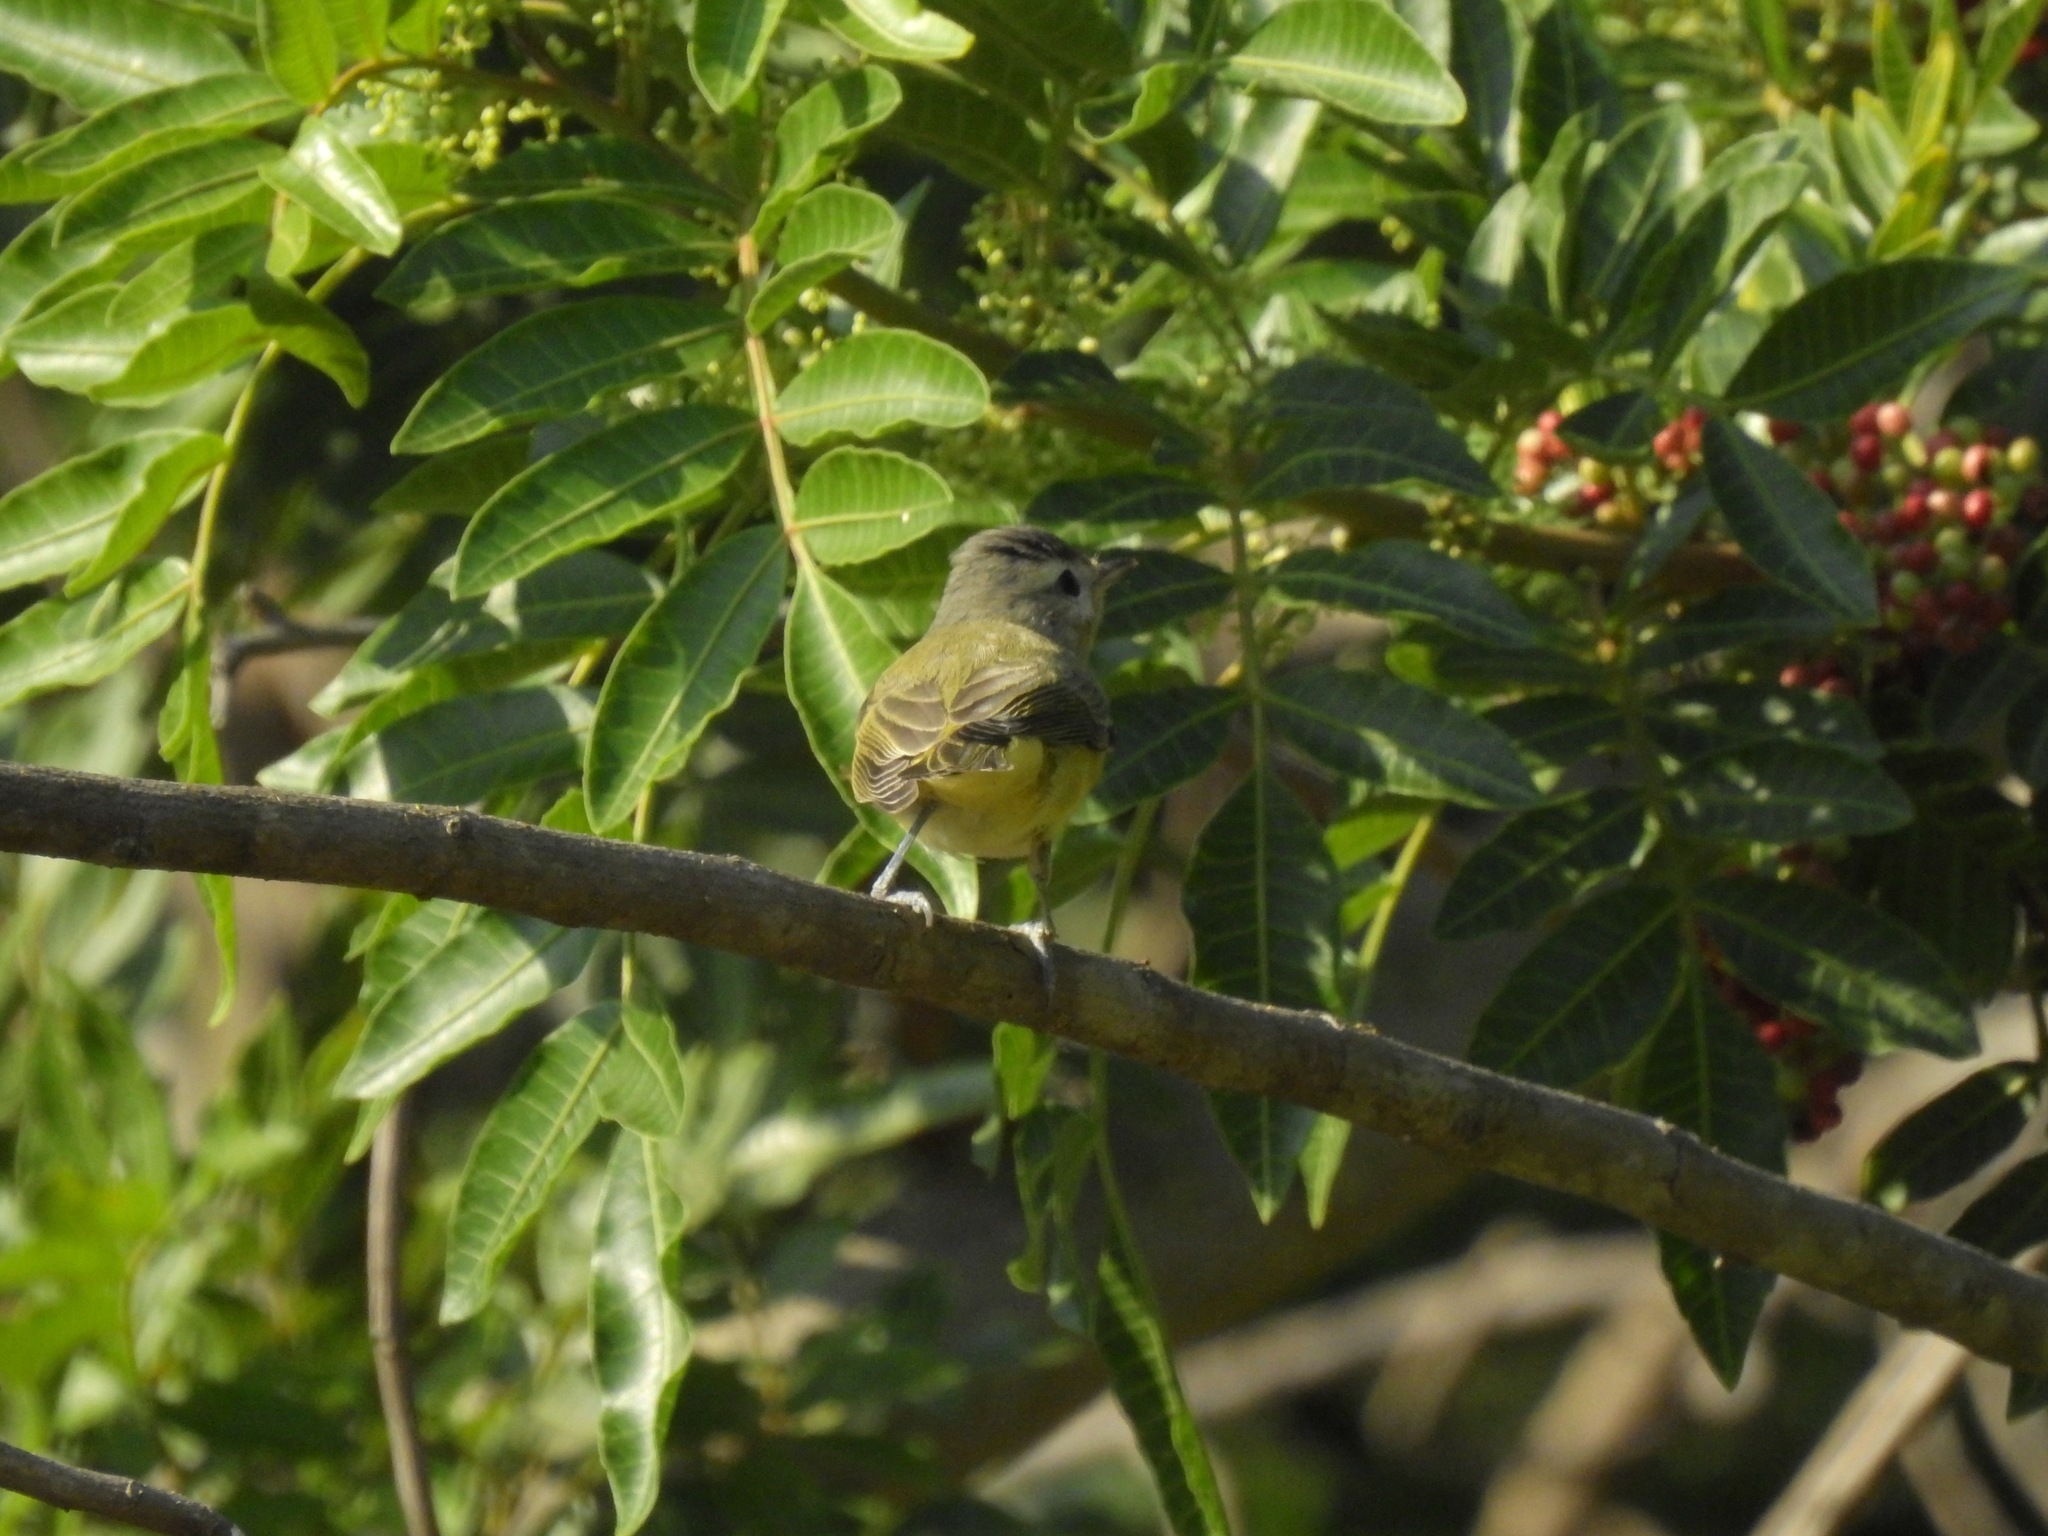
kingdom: Animalia
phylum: Chordata
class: Aves
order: Passeriformes
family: Vireonidae
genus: Vireo
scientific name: Vireo gilvus
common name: Warbling vireo
